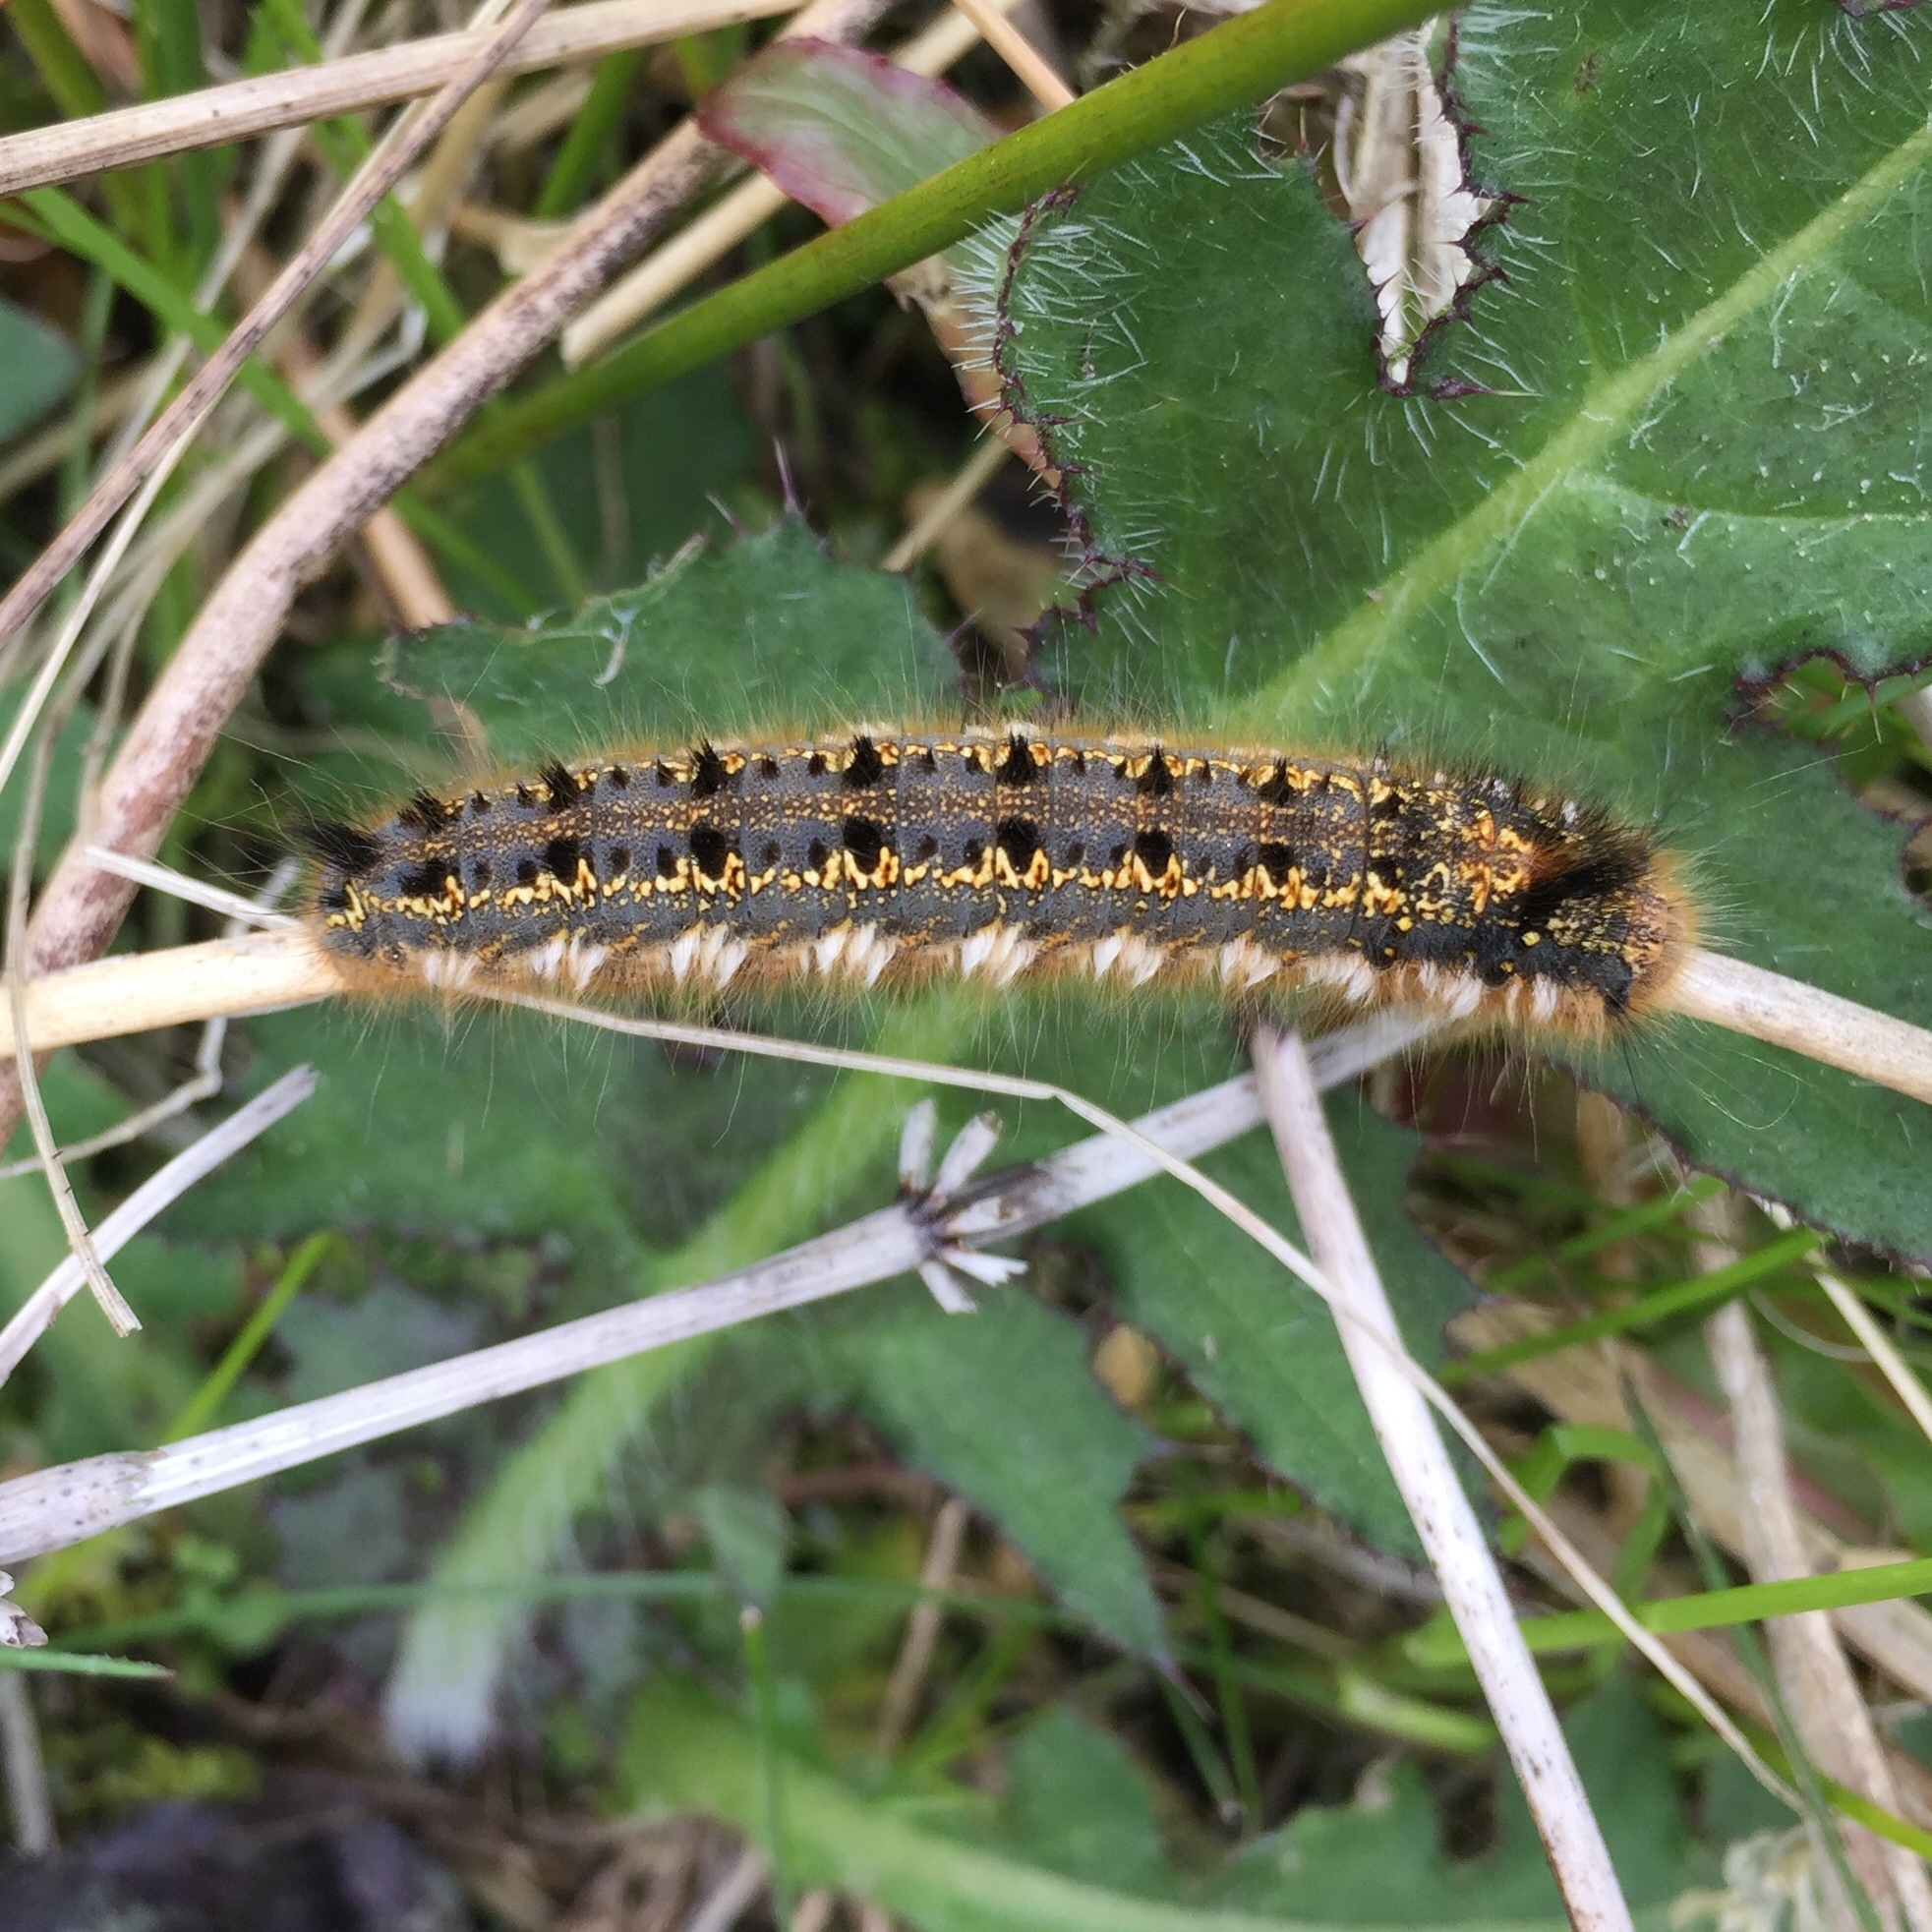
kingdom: Animalia
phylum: Arthropoda
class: Insecta
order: Lepidoptera
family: Lasiocampidae
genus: Euthrix
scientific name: Euthrix potatoria
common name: Drinker
